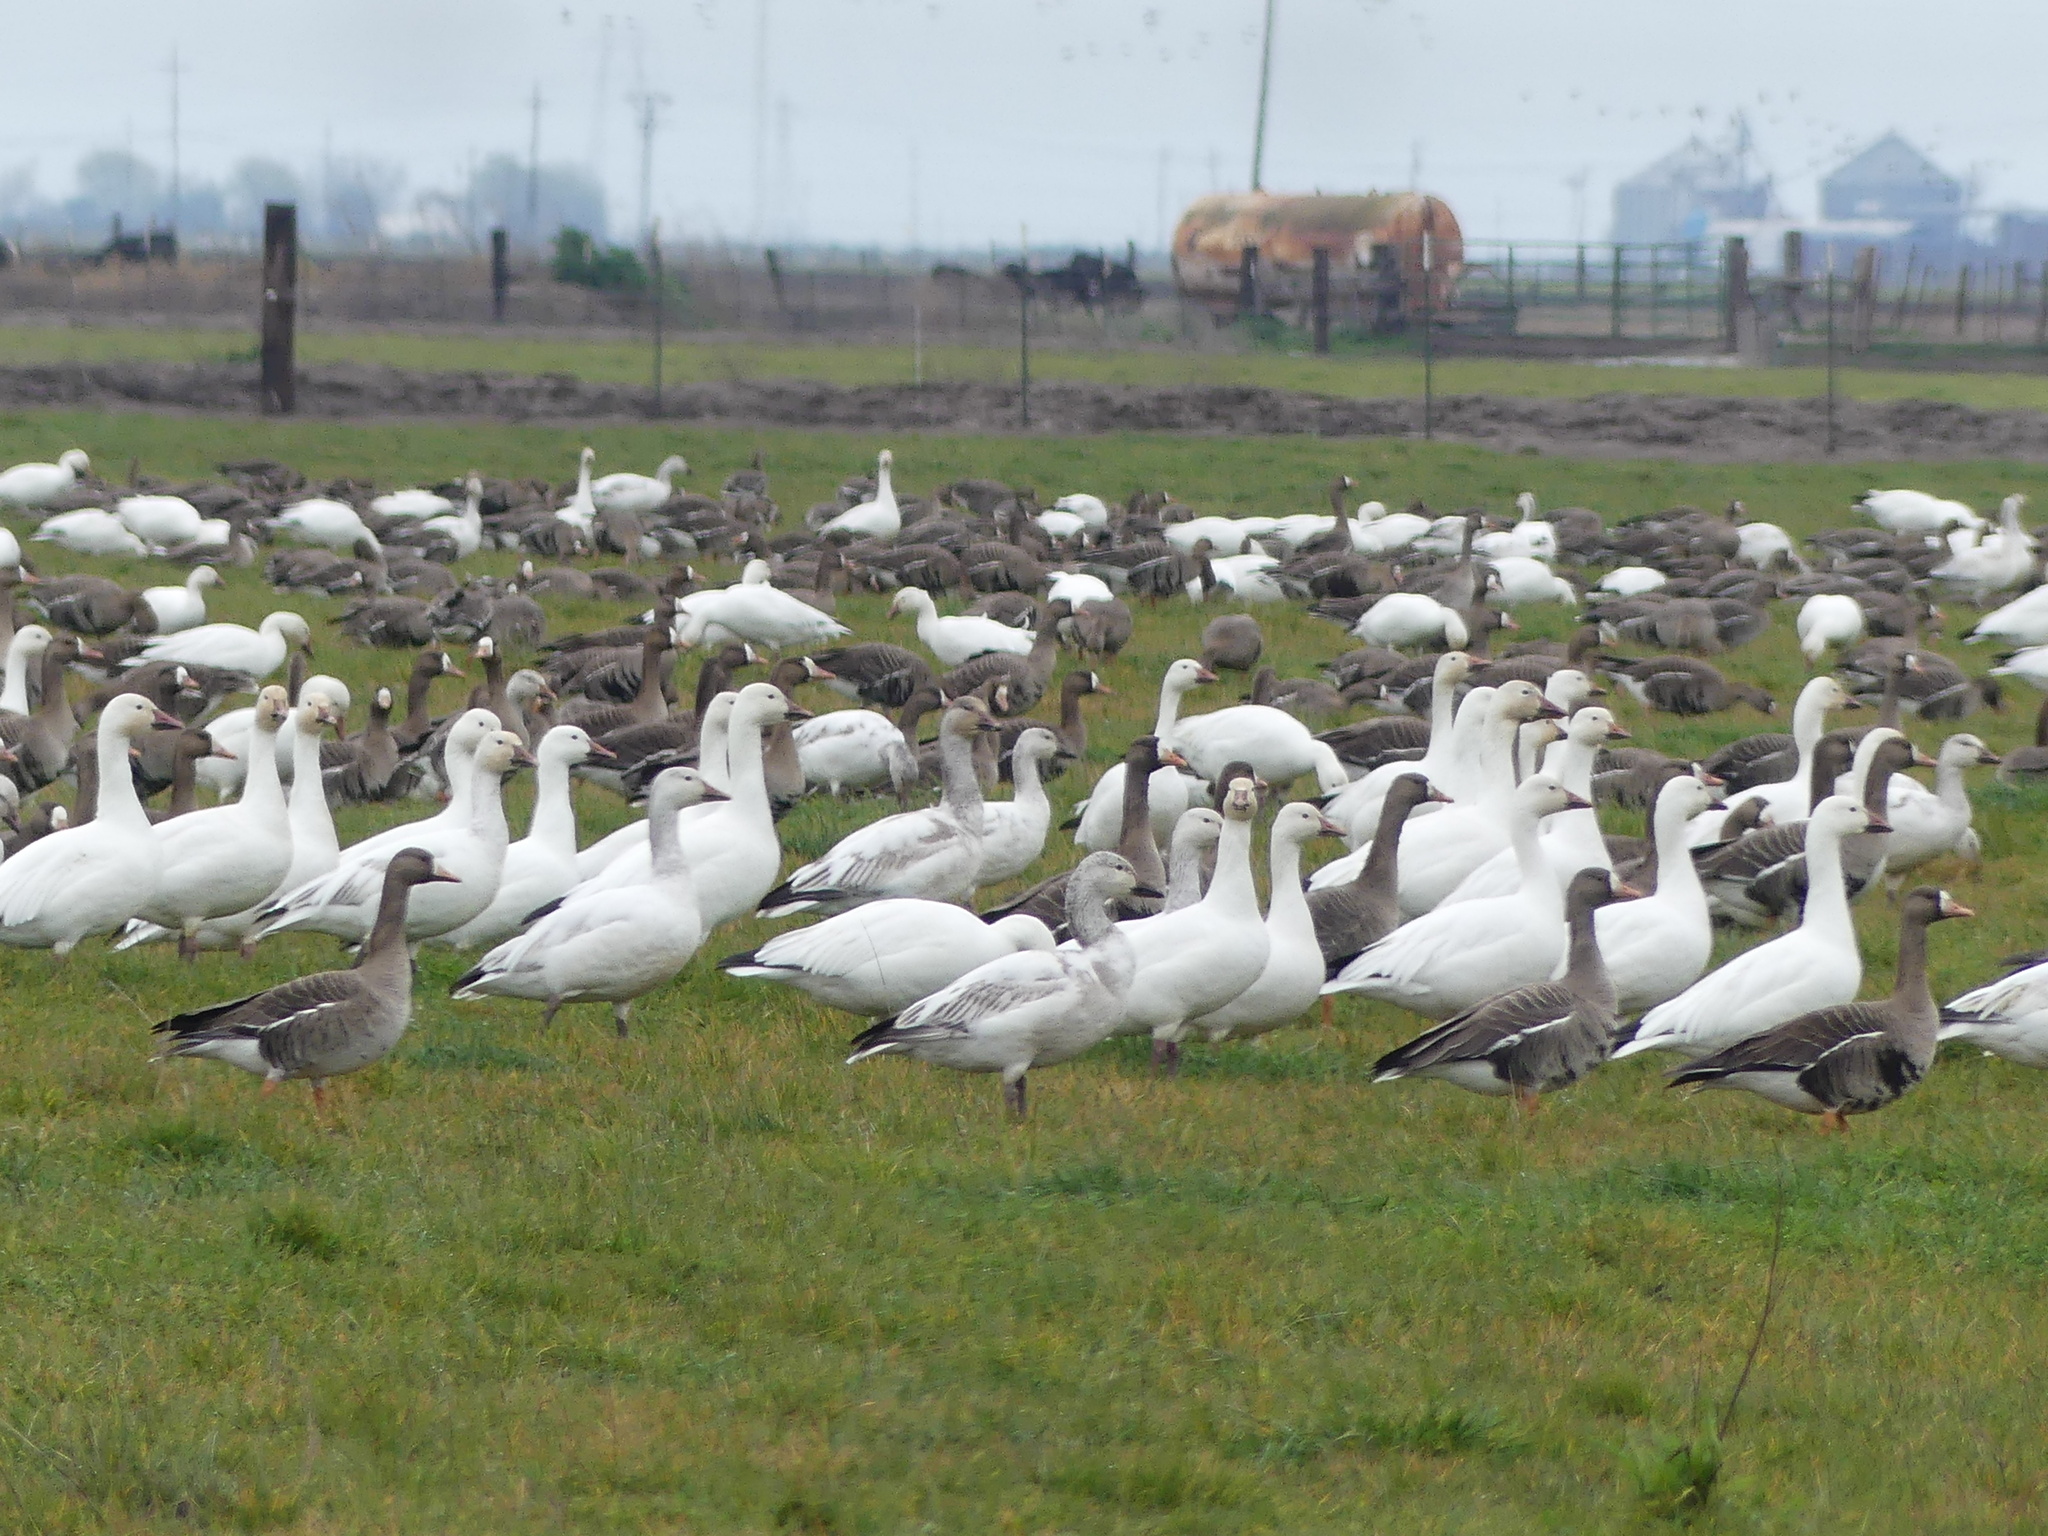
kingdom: Animalia
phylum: Chordata
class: Aves
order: Anseriformes
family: Anatidae
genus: Anser
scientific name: Anser caerulescens
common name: Snow goose
